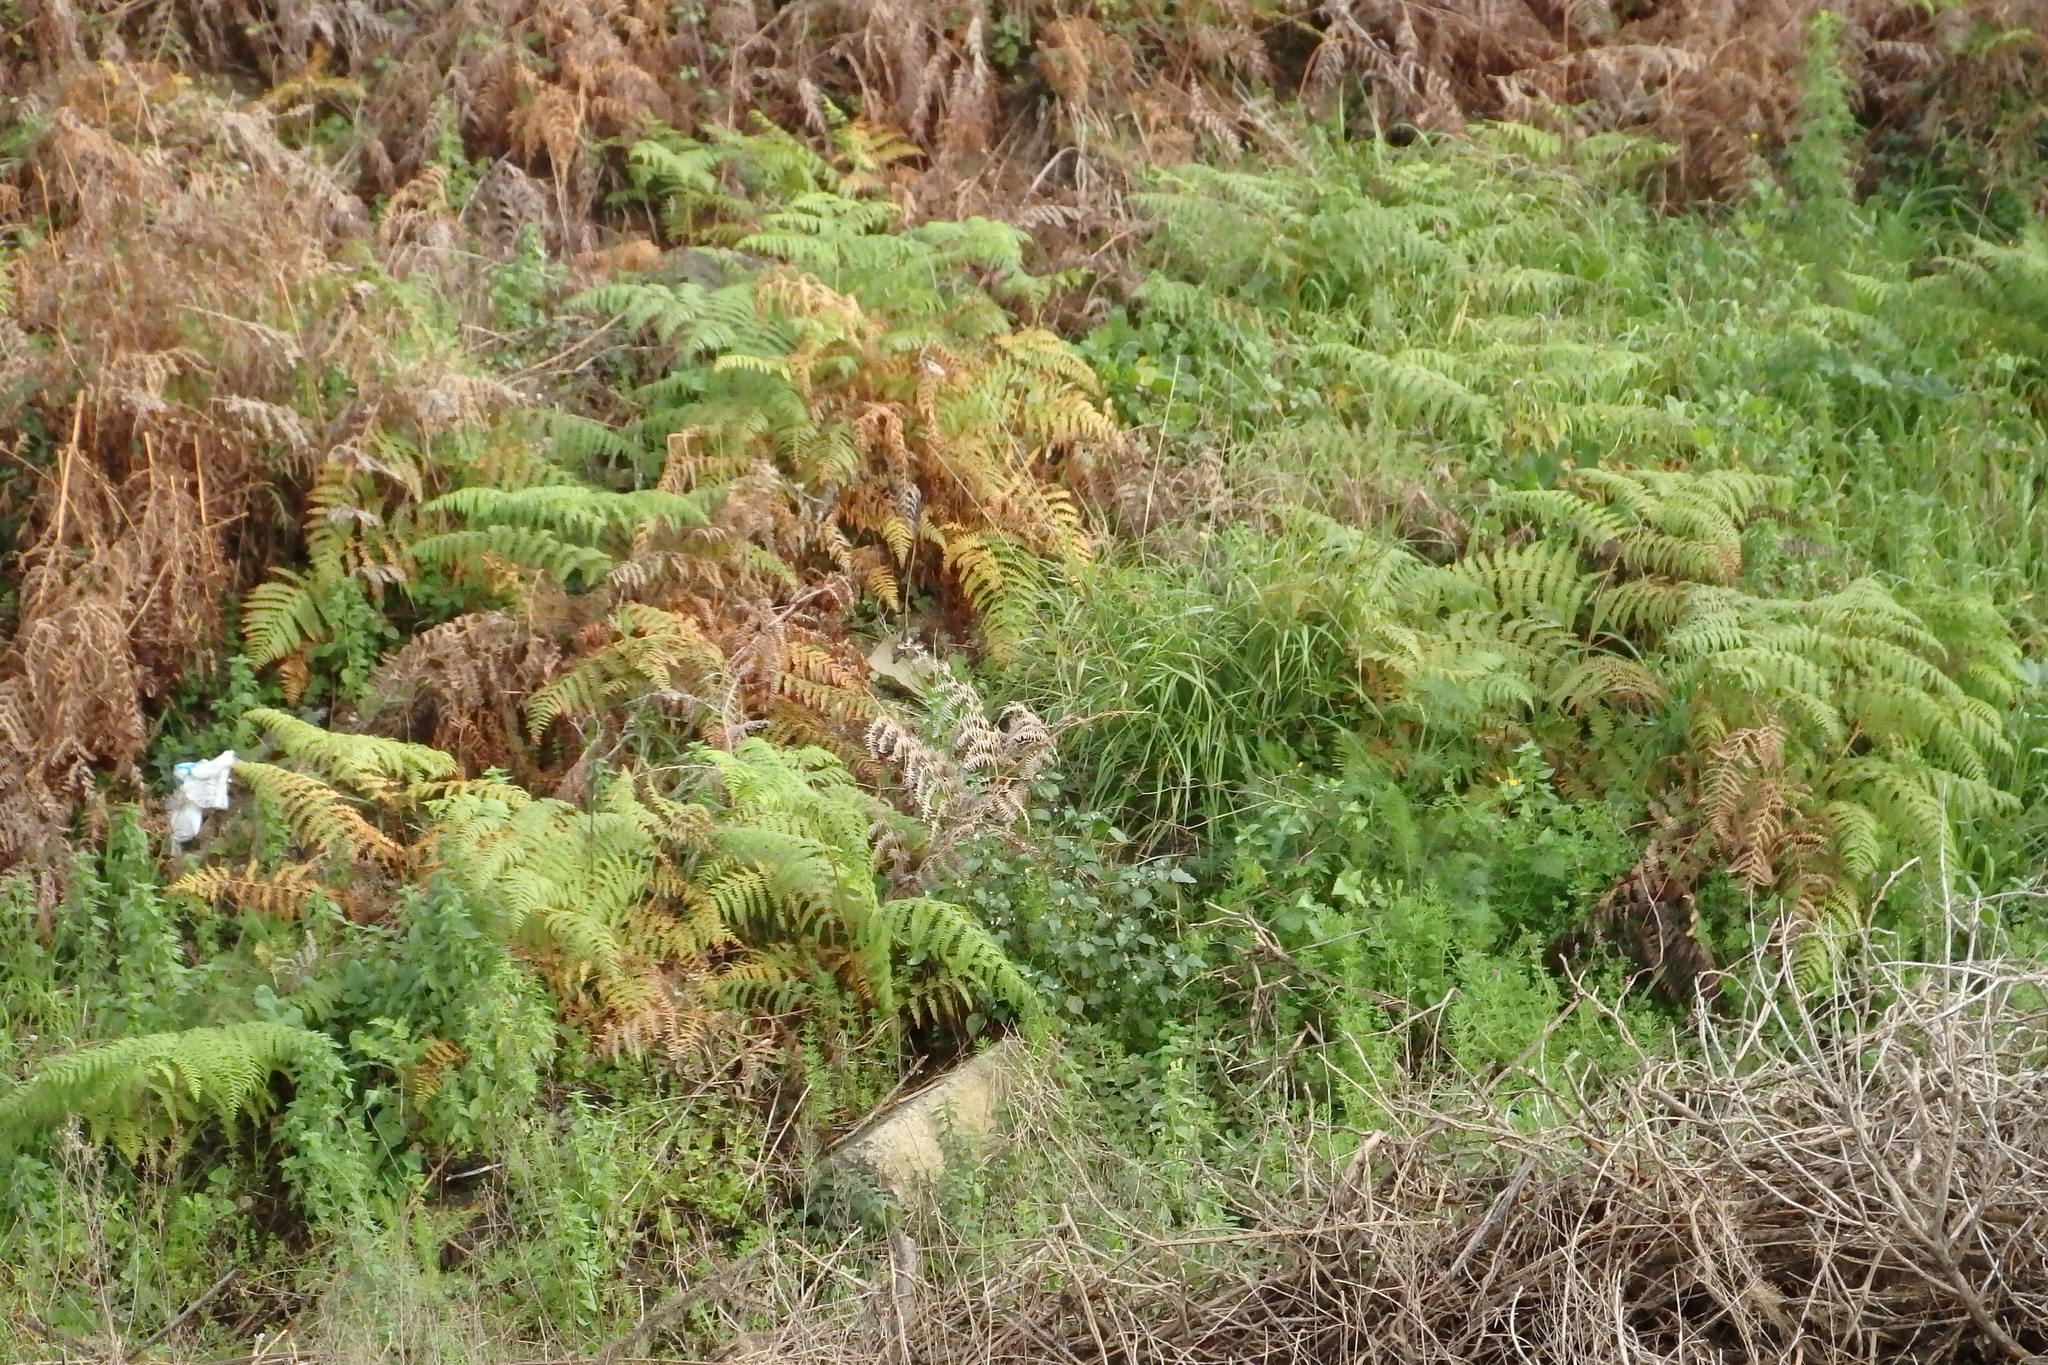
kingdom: Plantae
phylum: Tracheophyta
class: Polypodiopsida
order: Polypodiales
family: Dennstaedtiaceae
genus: Pteridium
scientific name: Pteridium aquilinum
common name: Bracken
